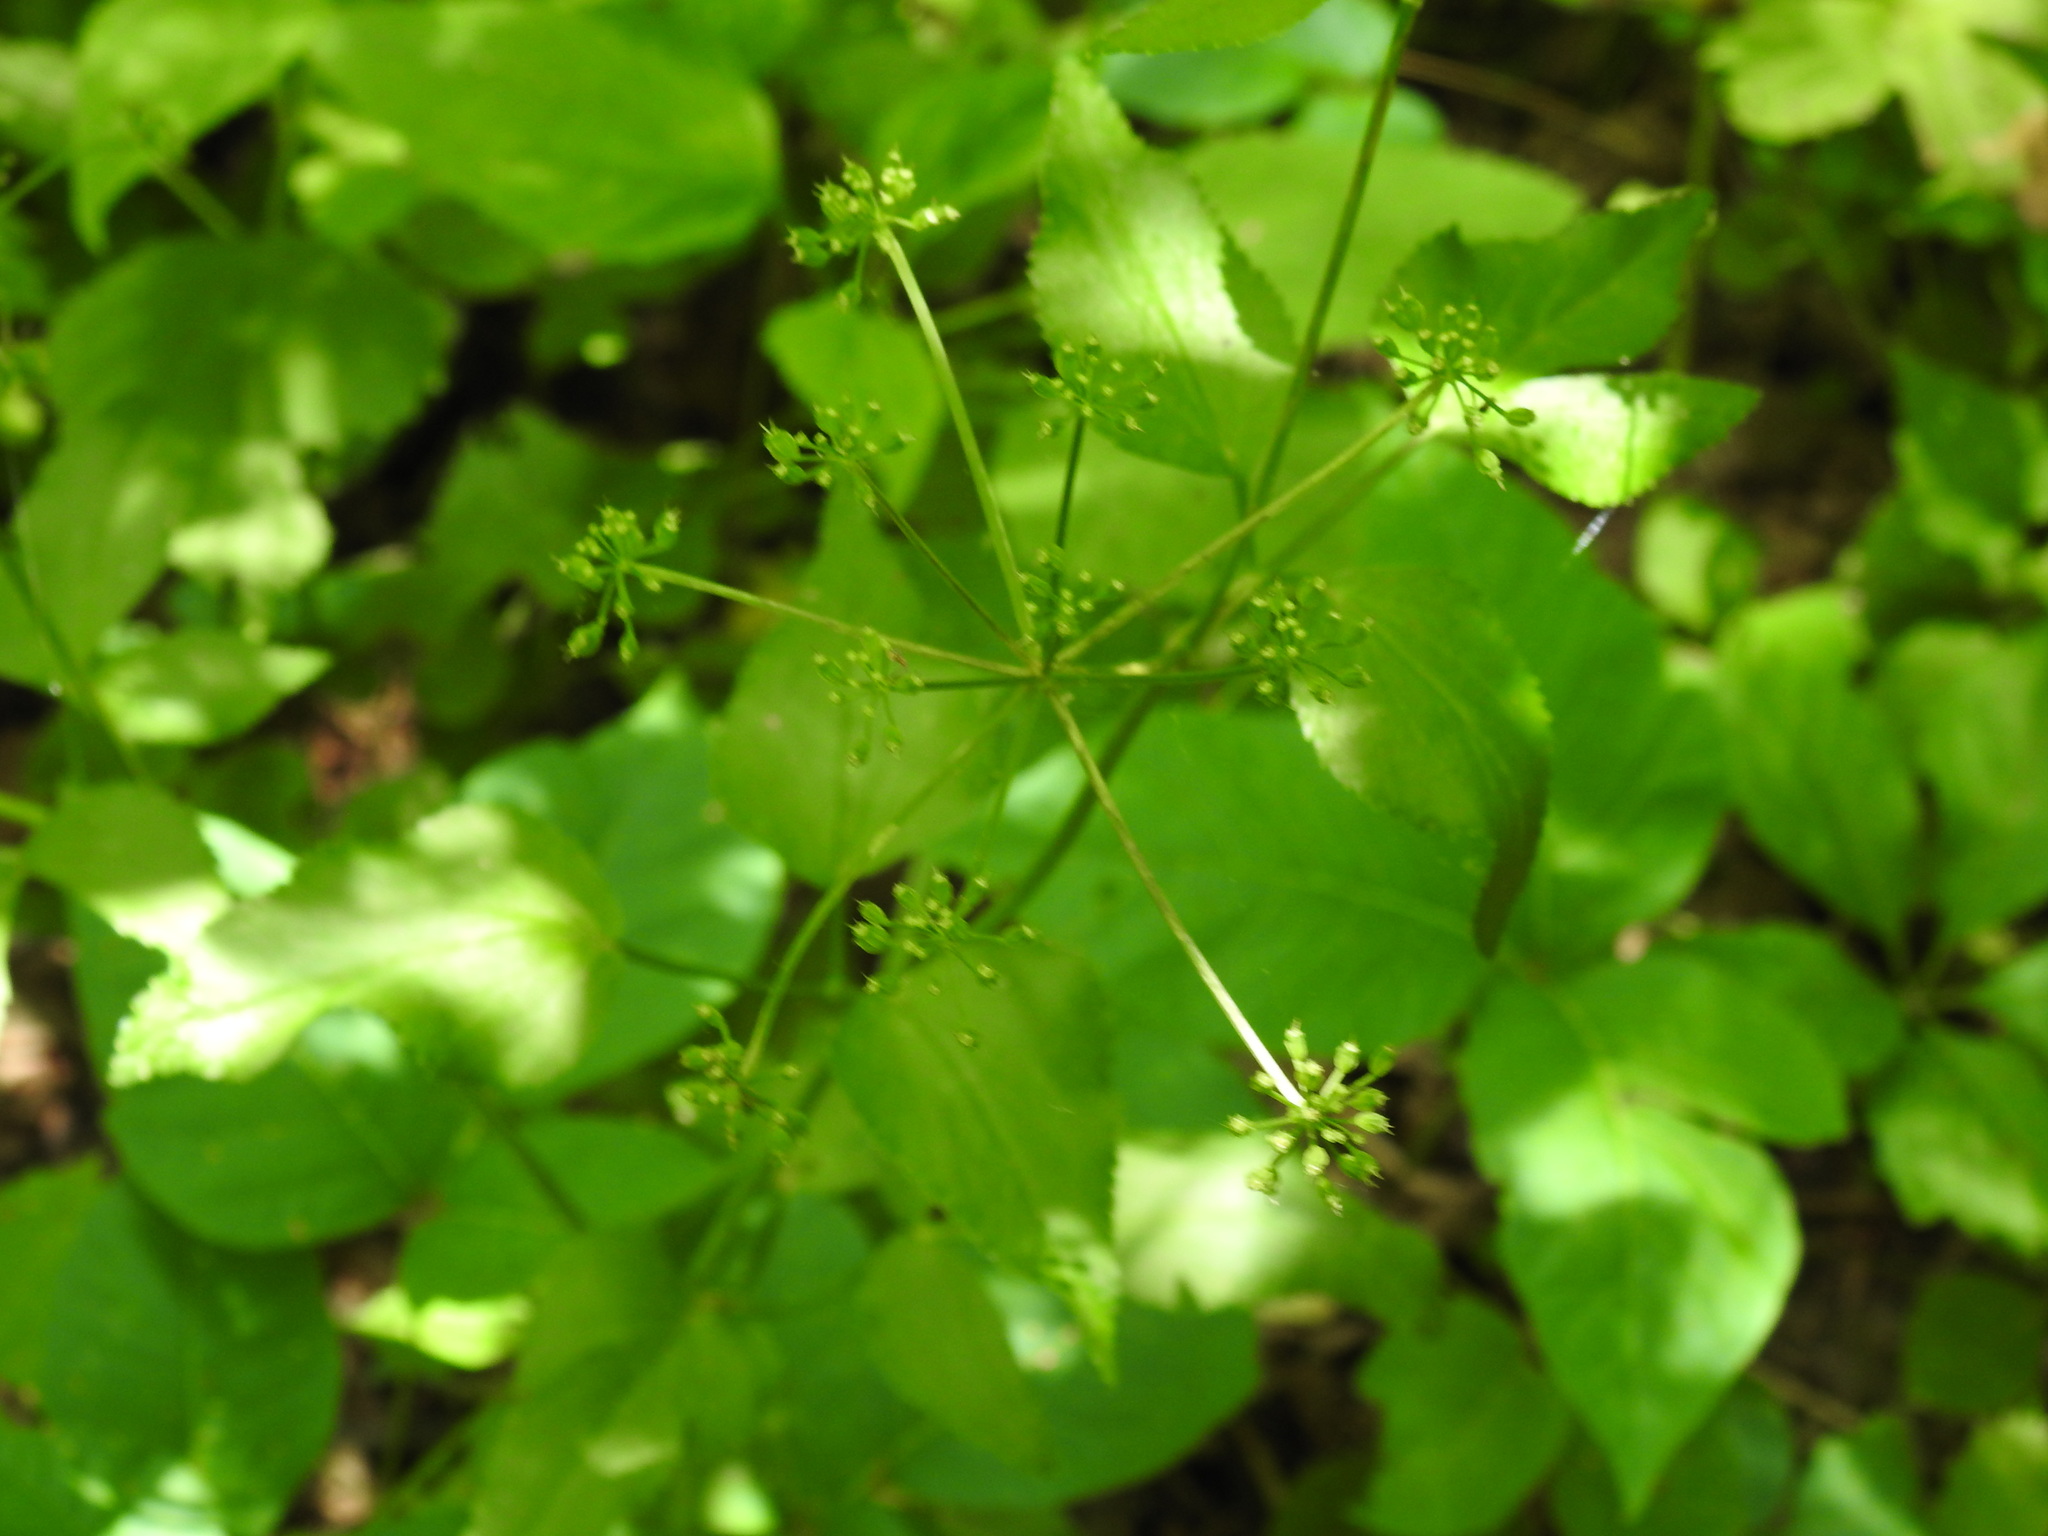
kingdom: Plantae
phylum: Tracheophyta
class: Magnoliopsida
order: Apiales
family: Apiaceae
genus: Zizia
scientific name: Zizia aurea
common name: Golden alexanders
